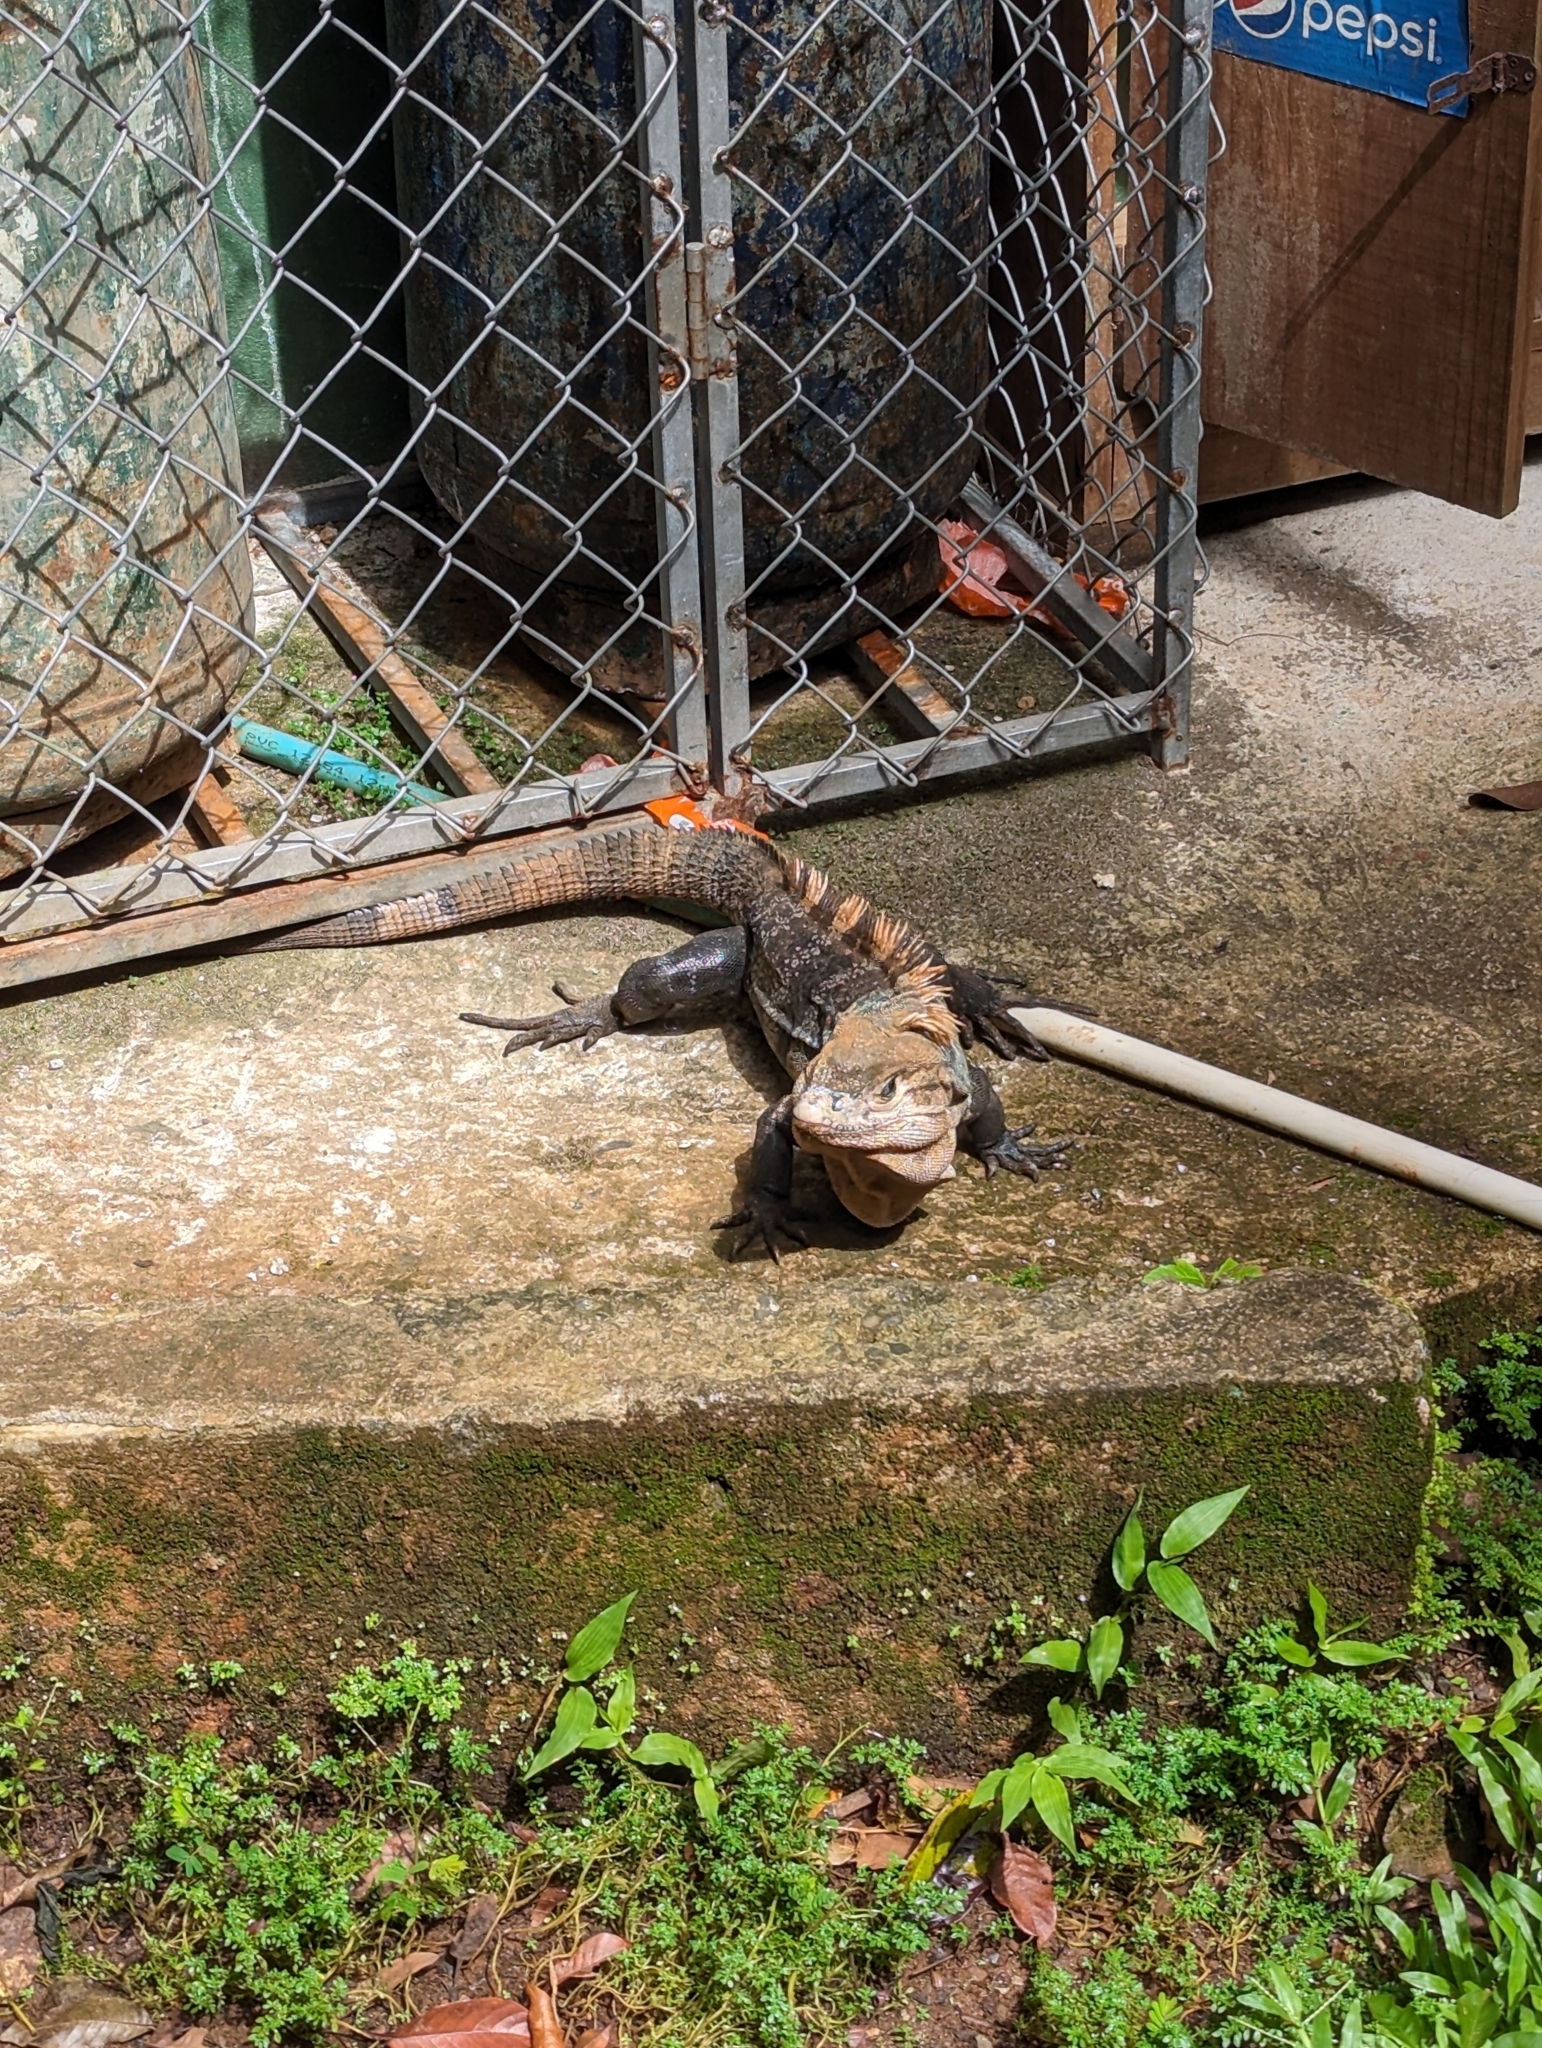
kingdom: Animalia
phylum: Chordata
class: Squamata
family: Iguanidae
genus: Ctenosaura
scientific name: Ctenosaura similis
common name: Black spiny-tailed iguana
